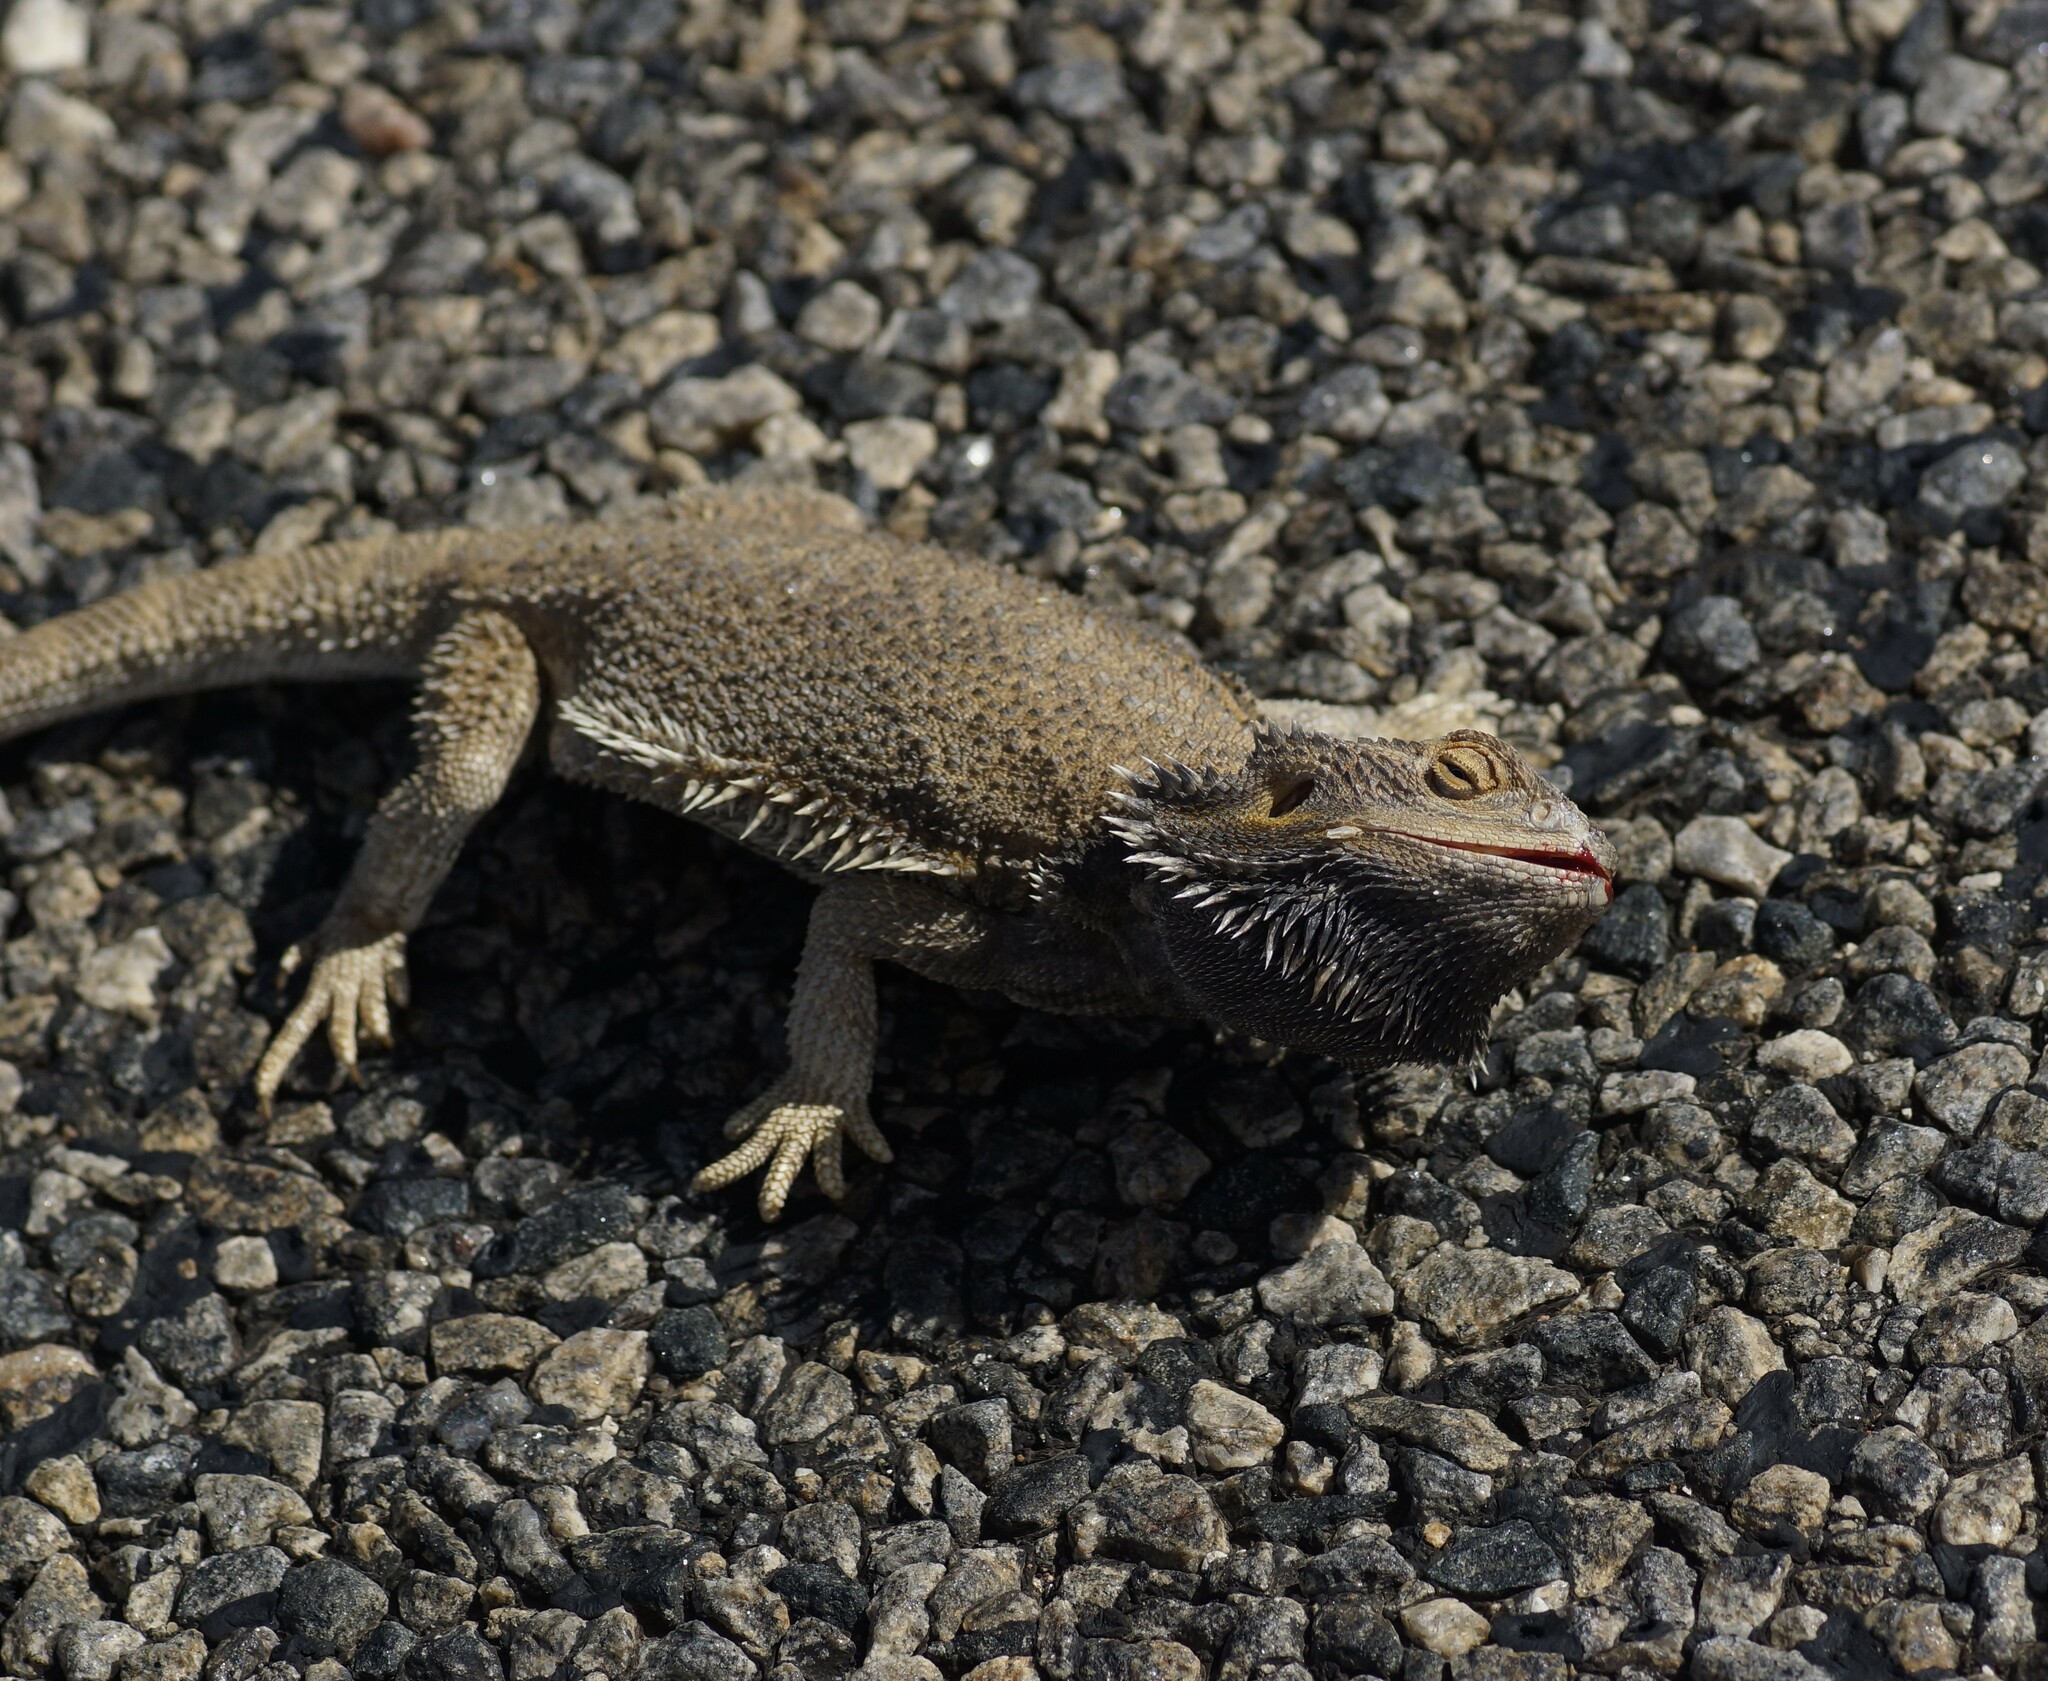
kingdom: Animalia
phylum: Chordata
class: Squamata
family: Agamidae
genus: Pogona
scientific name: Pogona vitticeps
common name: Central bearded dragon
